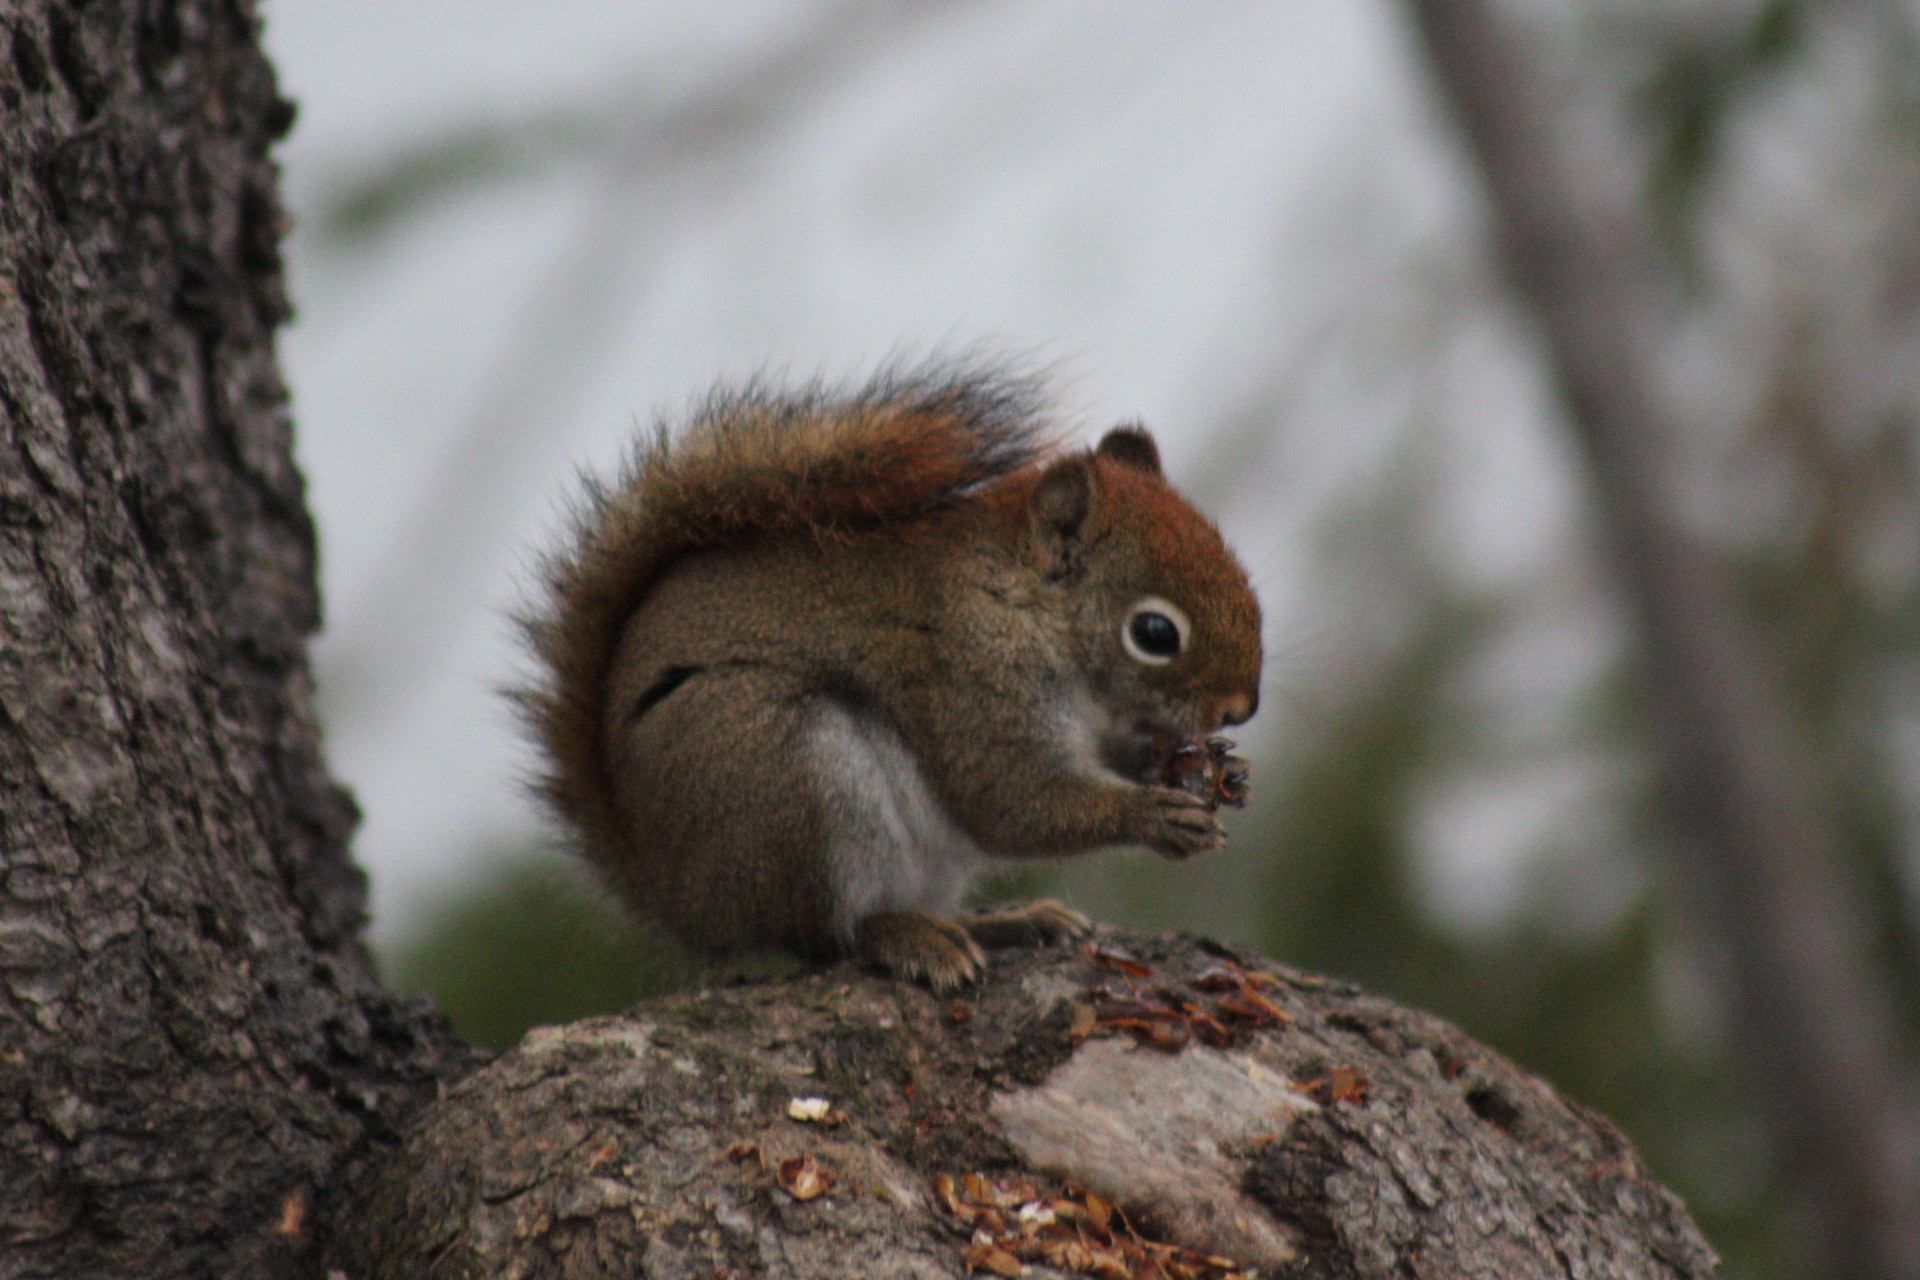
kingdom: Animalia
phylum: Chordata
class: Mammalia
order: Rodentia
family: Sciuridae
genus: Tamiasciurus
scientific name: Tamiasciurus hudsonicus
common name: Red squirrel
